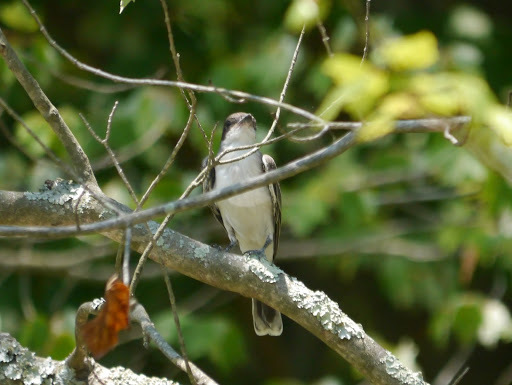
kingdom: Animalia
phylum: Chordata
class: Aves
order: Passeriformes
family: Tyrannidae
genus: Tyrannus
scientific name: Tyrannus tyrannus
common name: Eastern kingbird
